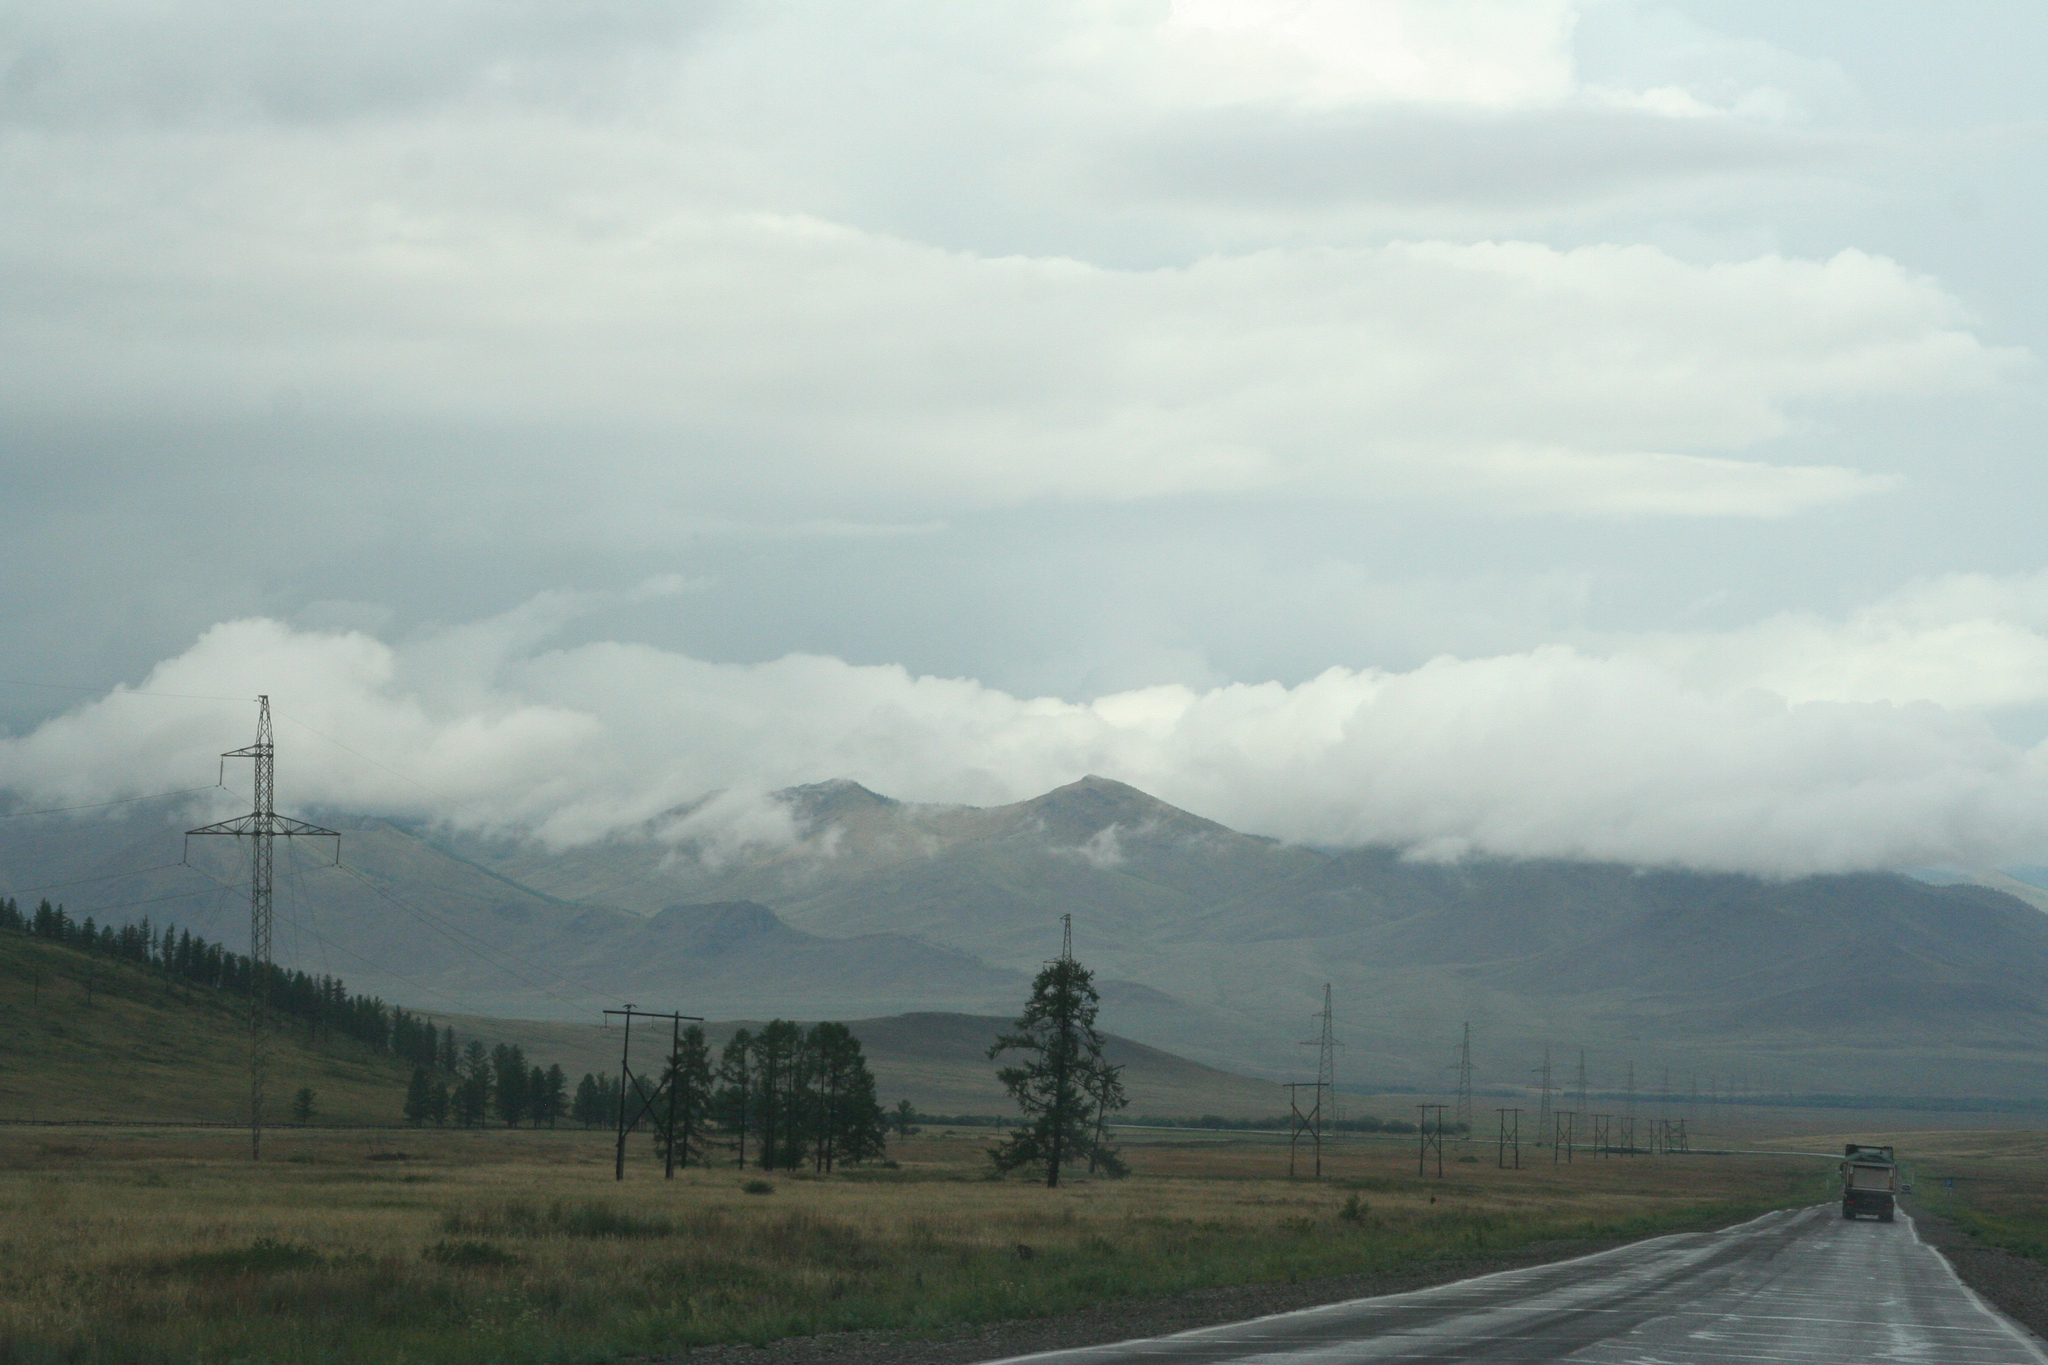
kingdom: Plantae
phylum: Tracheophyta
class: Pinopsida
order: Pinales
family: Pinaceae
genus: Larix
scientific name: Larix sibirica
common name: Siberian larch
